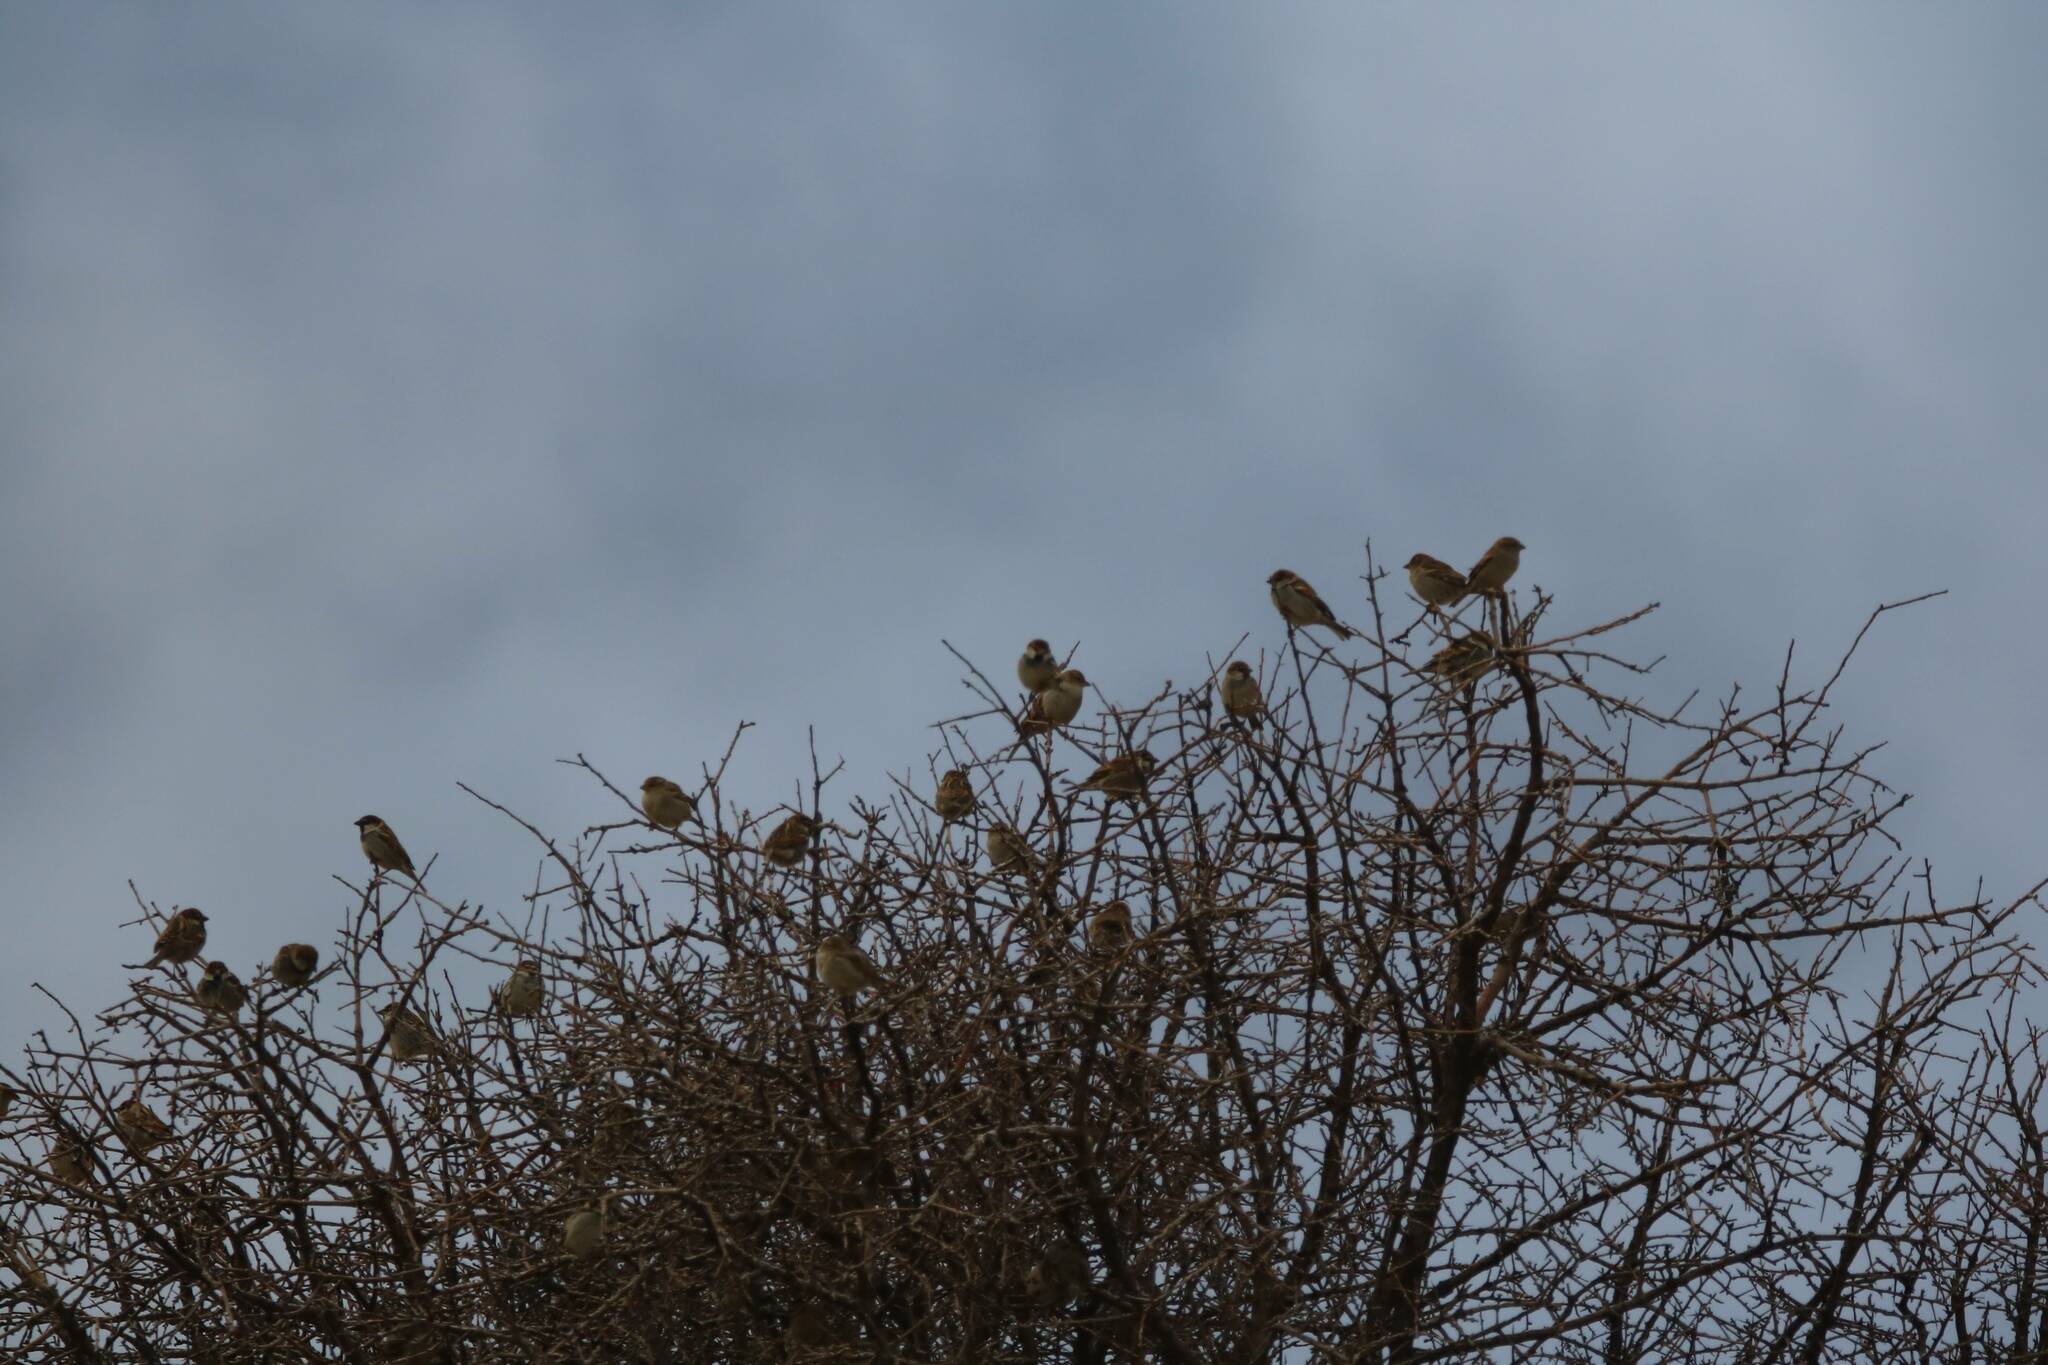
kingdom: Animalia
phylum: Chordata
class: Aves
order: Passeriformes
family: Passeridae
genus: Passer
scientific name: Passer hispaniolensis
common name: Spanish sparrow
